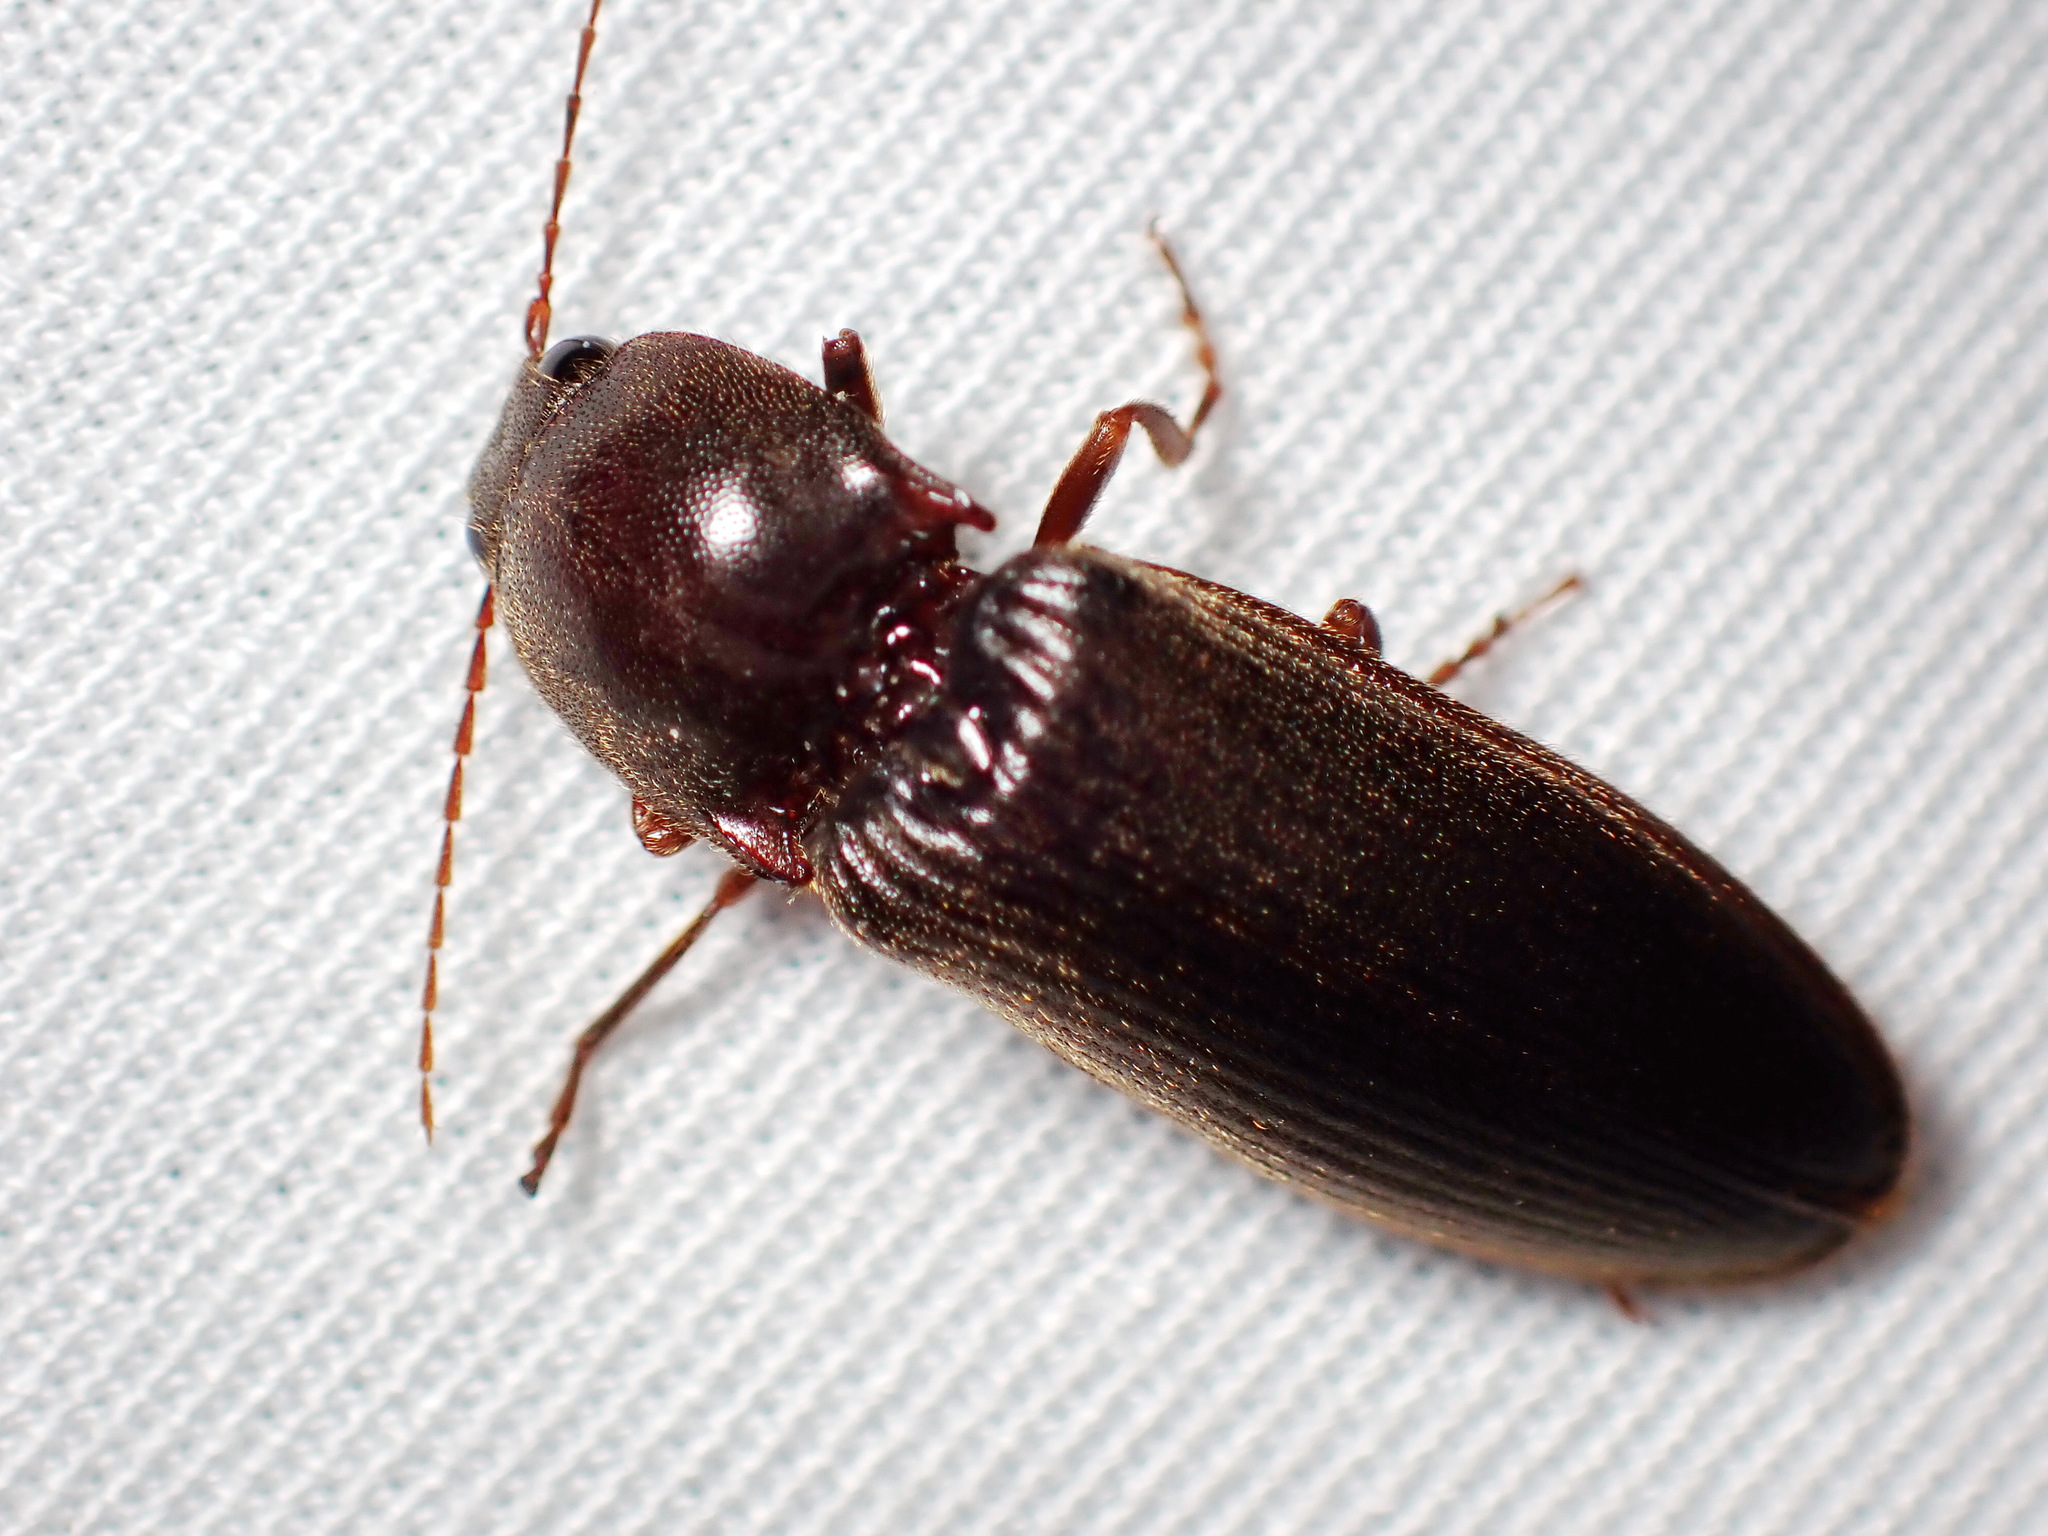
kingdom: Animalia
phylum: Arthropoda
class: Insecta
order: Coleoptera
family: Elateridae
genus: Hemicrepidius
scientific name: Hemicrepidius
